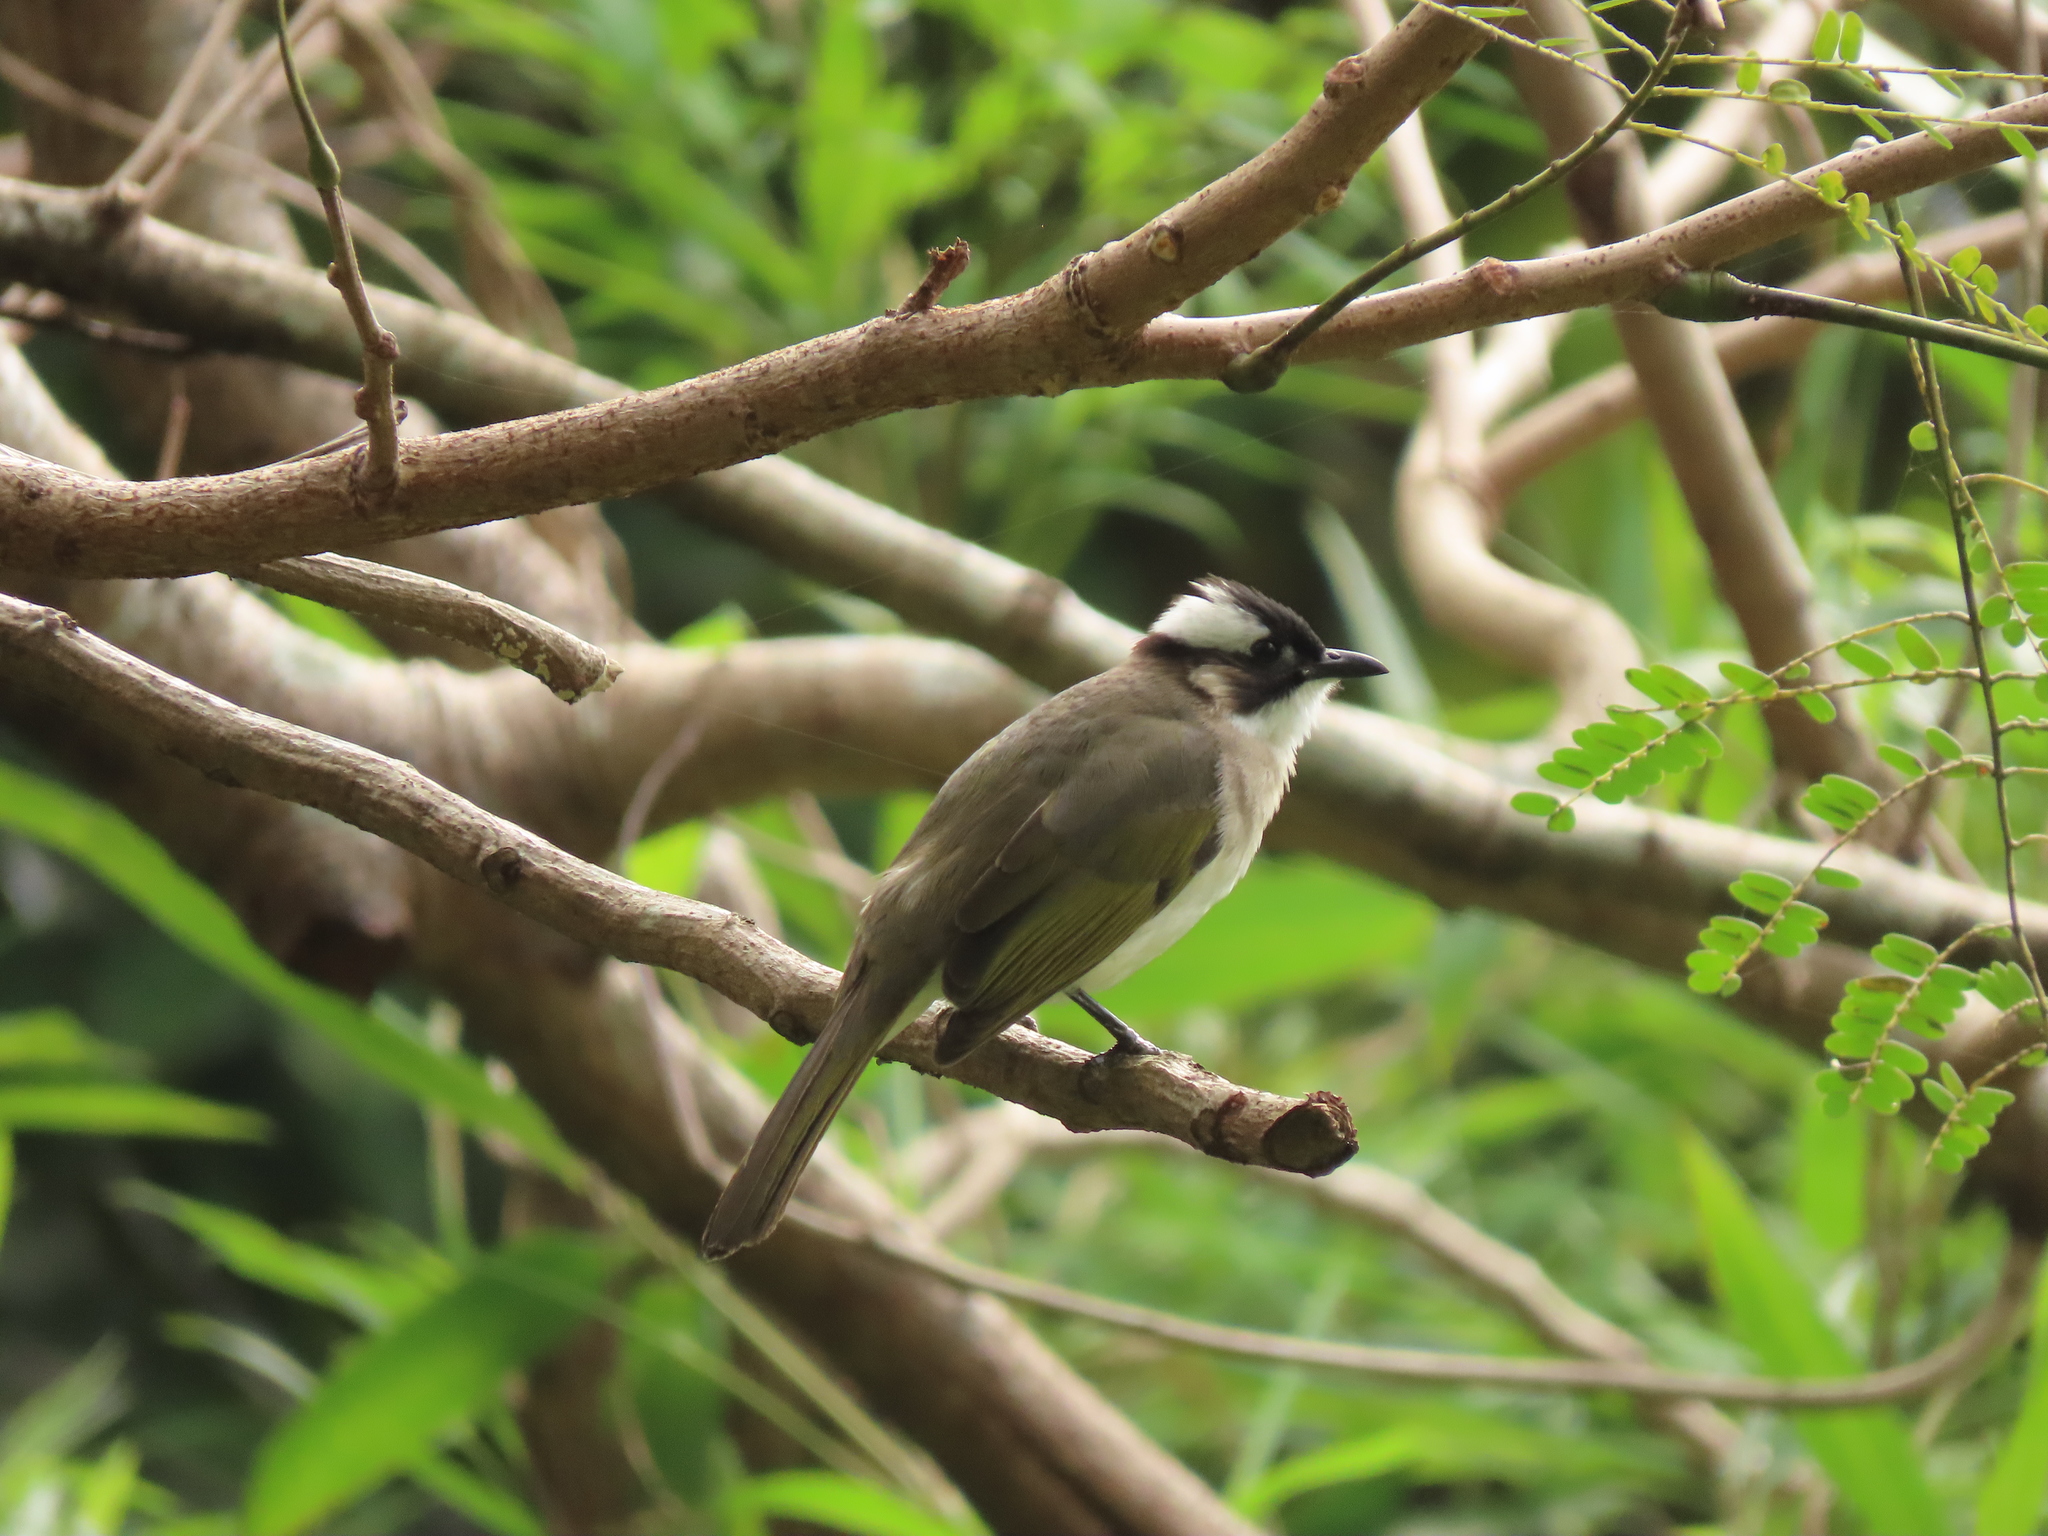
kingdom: Animalia
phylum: Chordata
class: Aves
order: Passeriformes
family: Pycnonotidae
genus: Pycnonotus
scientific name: Pycnonotus sinensis
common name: Light-vented bulbul
